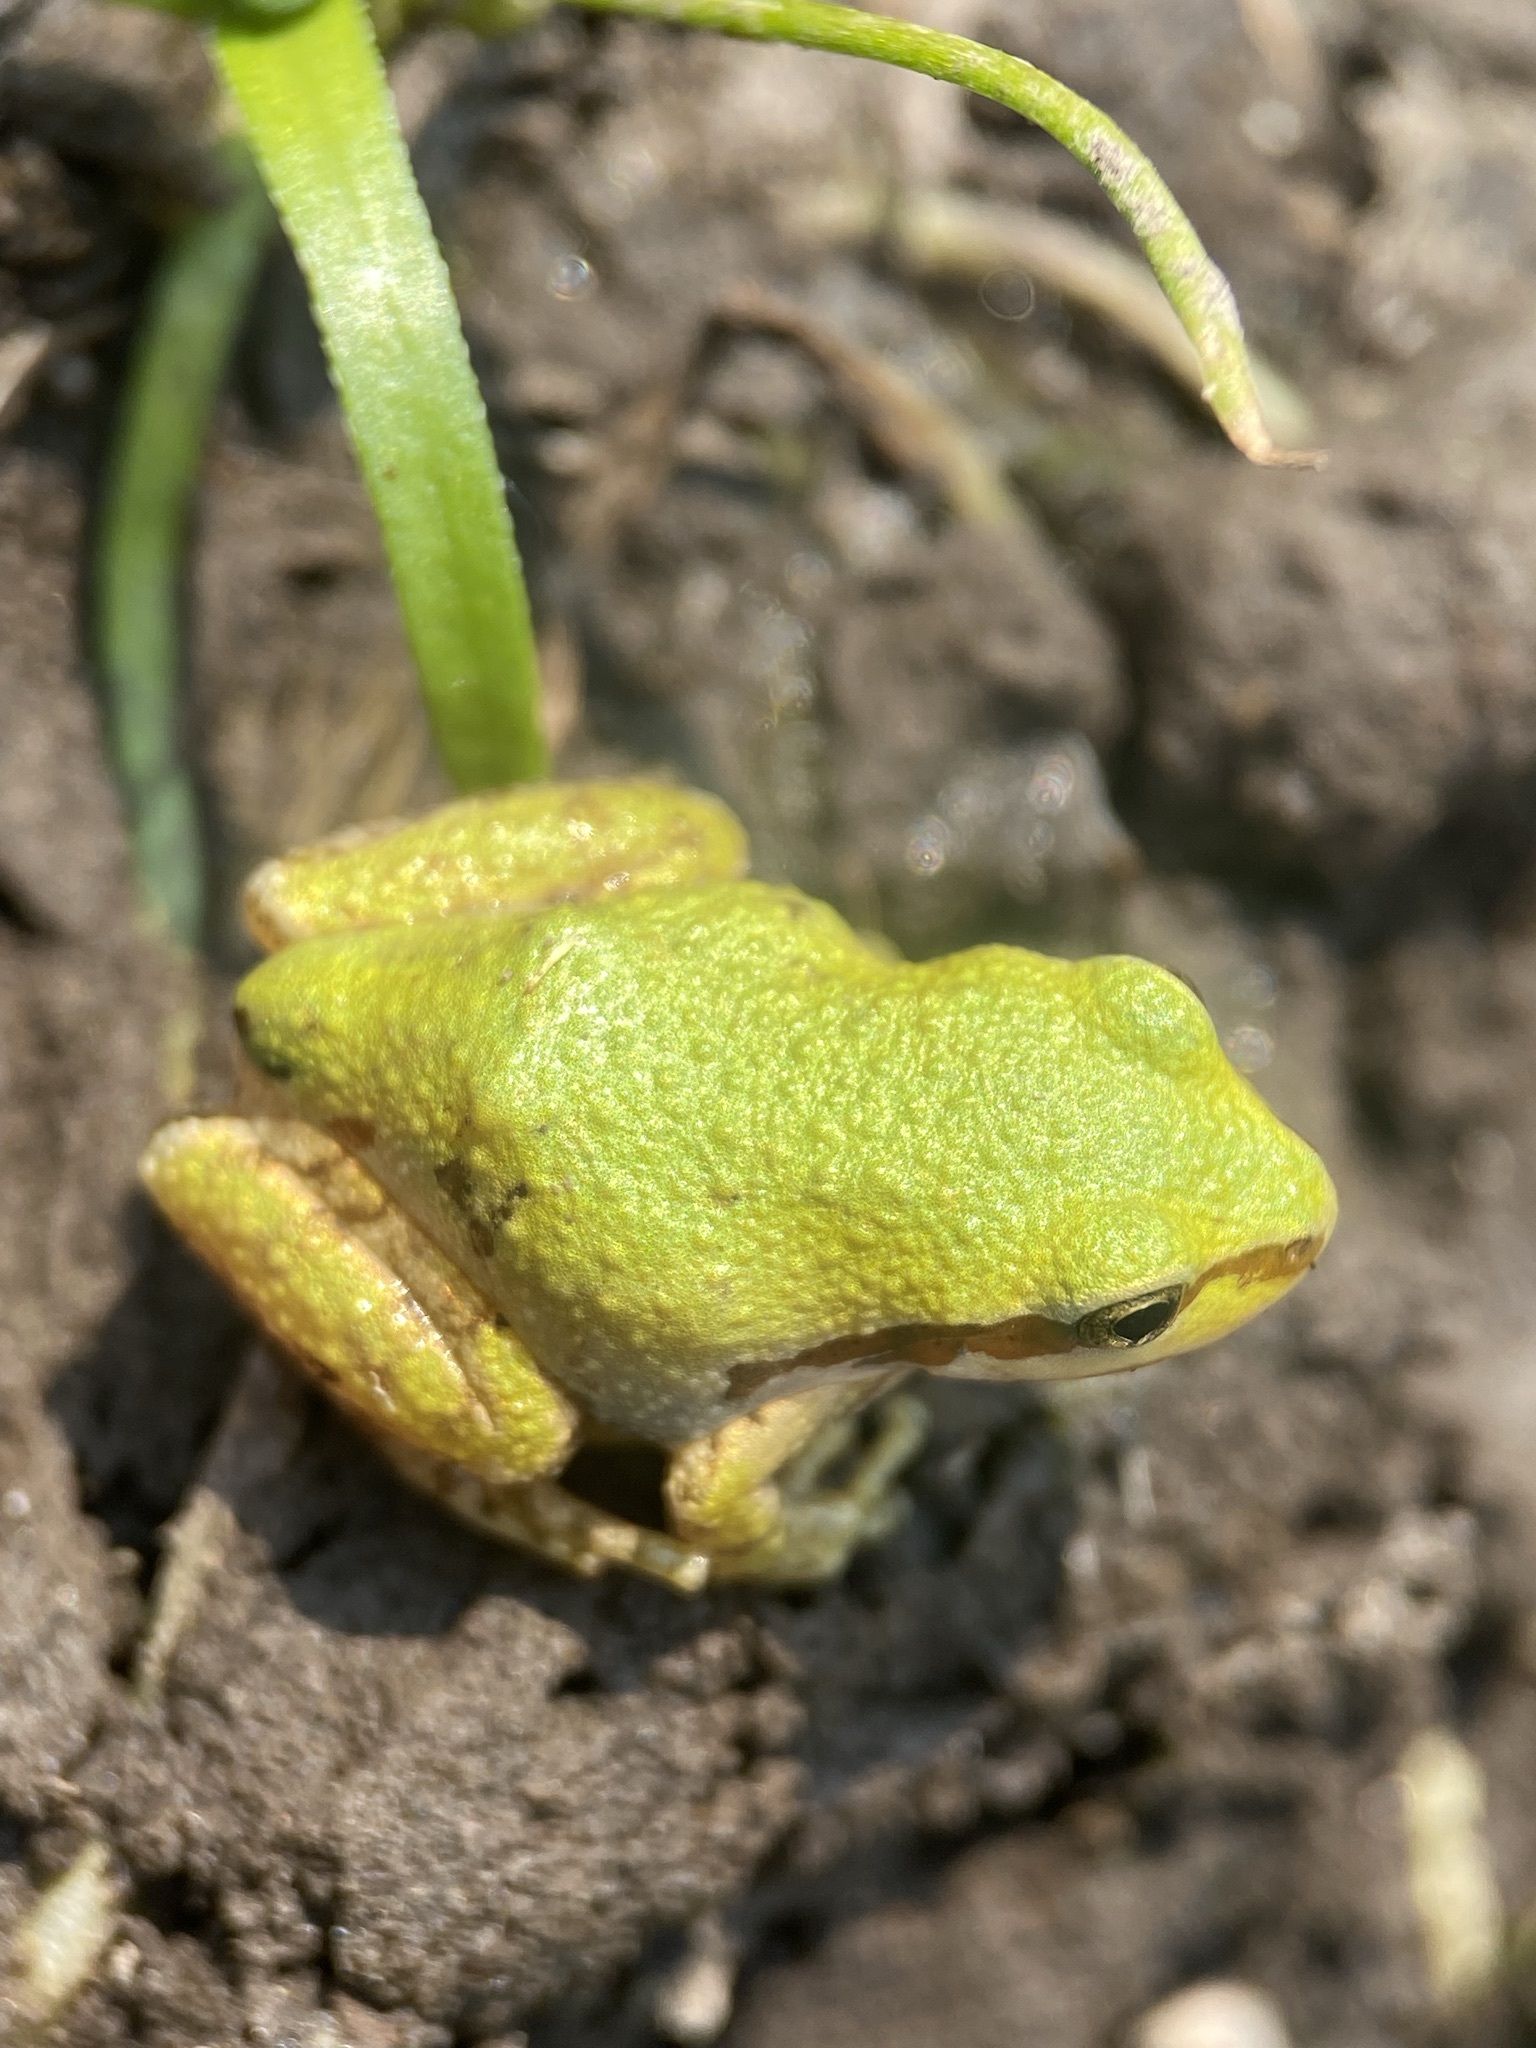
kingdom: Animalia
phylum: Chordata
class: Amphibia
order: Anura
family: Hylidae
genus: Pseudacris
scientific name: Pseudacris regilla
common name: Pacific chorus frog
